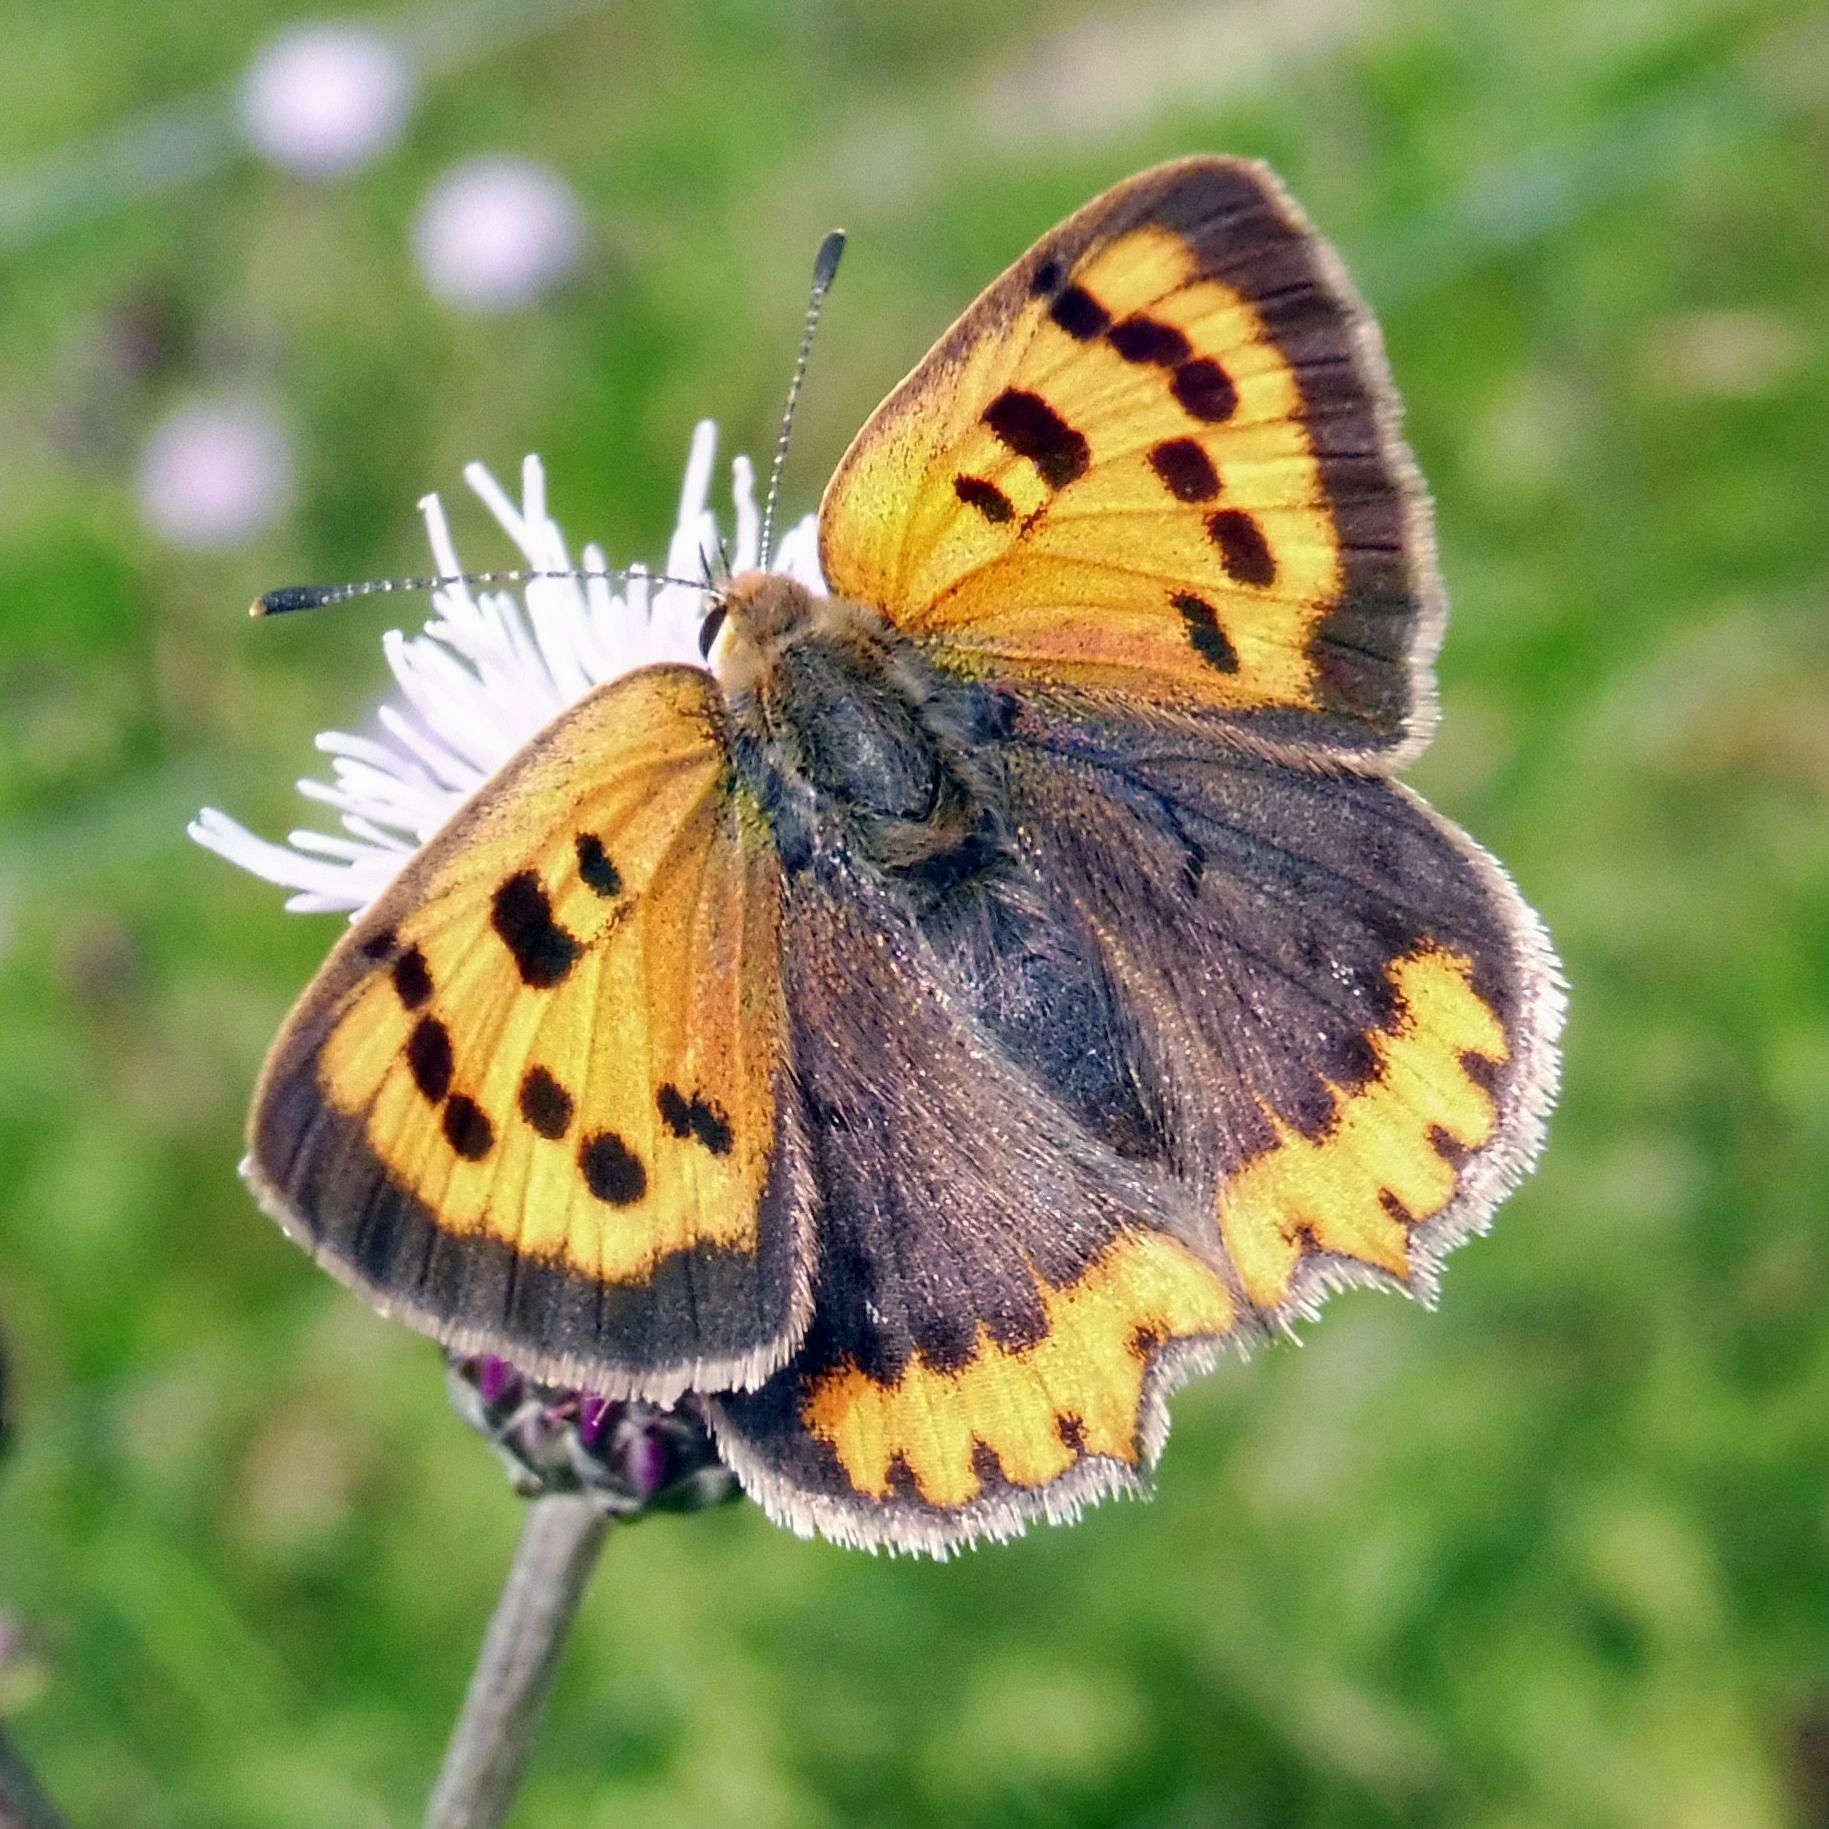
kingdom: Animalia
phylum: Arthropoda
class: Insecta
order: Lepidoptera
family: Lycaenidae
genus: Lycaena
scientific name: Lycaena phlaeas
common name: Small copper
